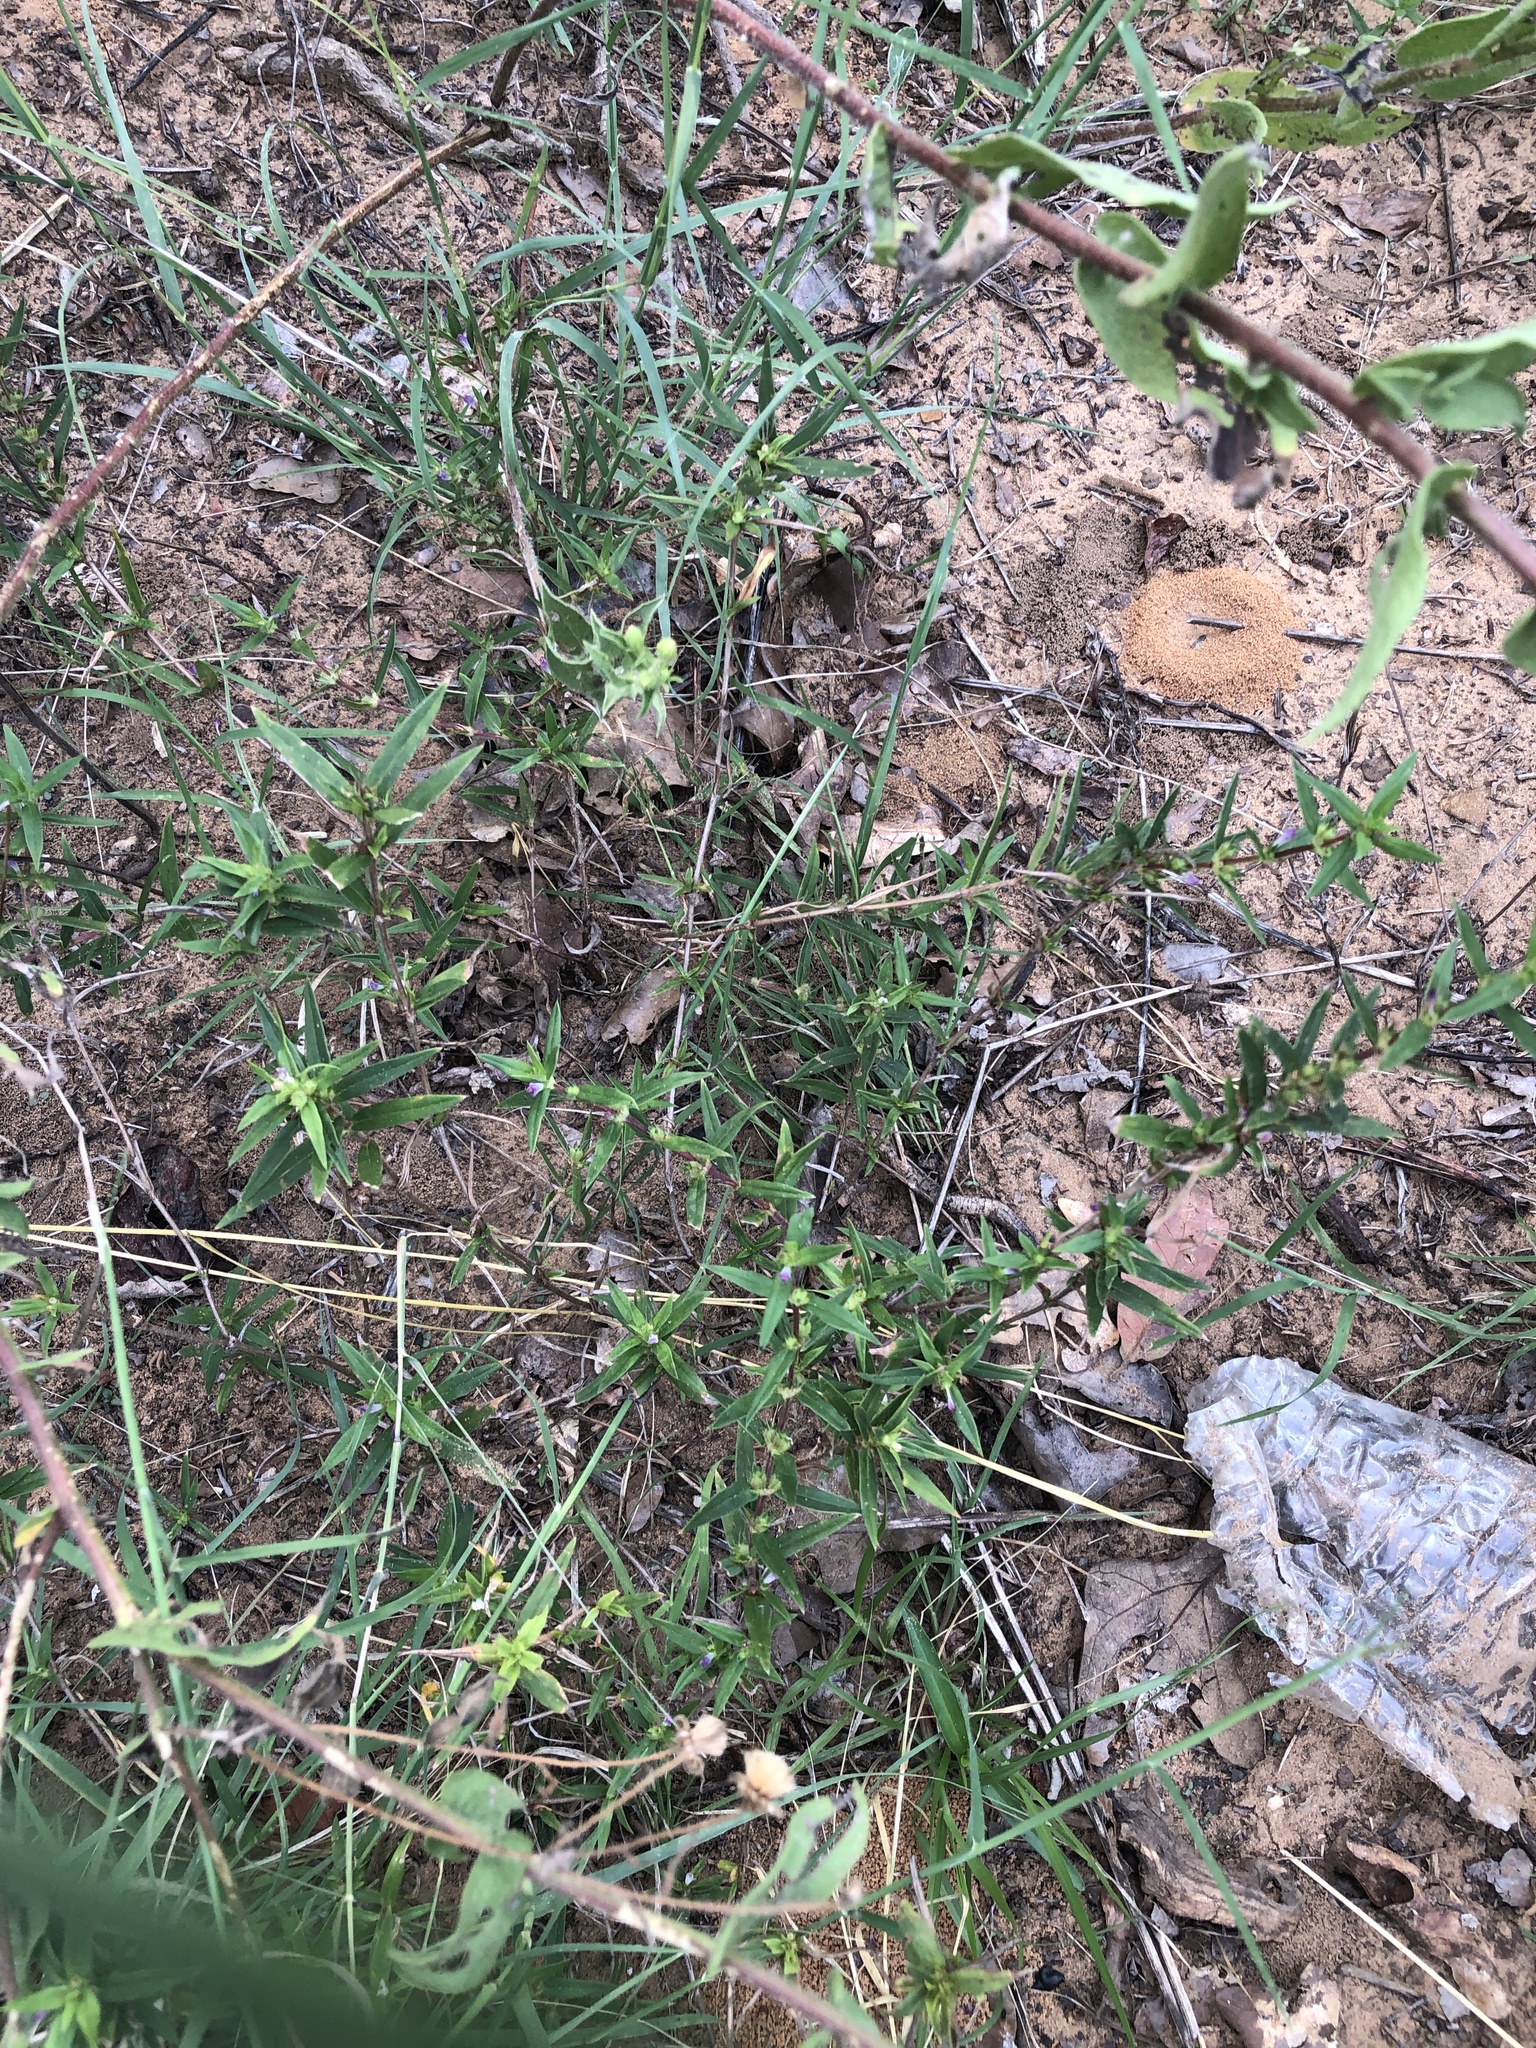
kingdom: Plantae
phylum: Tracheophyta
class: Magnoliopsida
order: Gentianales
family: Rubiaceae
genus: Hexasepalum
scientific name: Hexasepalum teres
